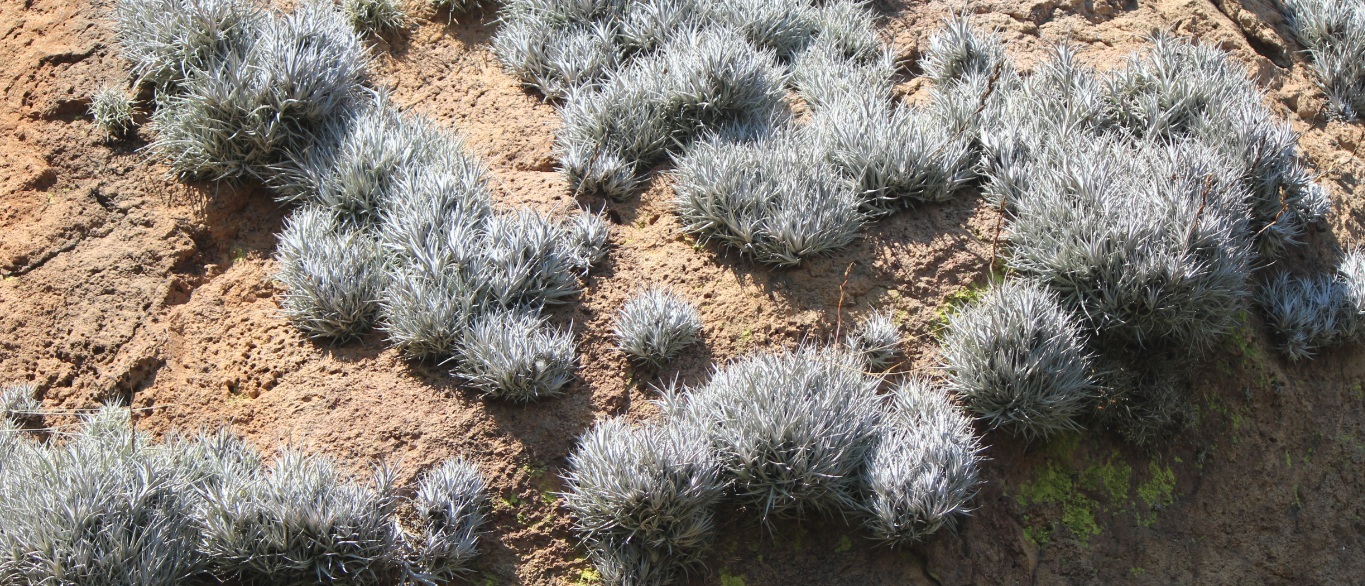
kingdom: Plantae
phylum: Tracheophyta
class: Liliopsida
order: Poales
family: Bromeliaceae
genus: Tillandsia
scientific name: Tillandsia albida
